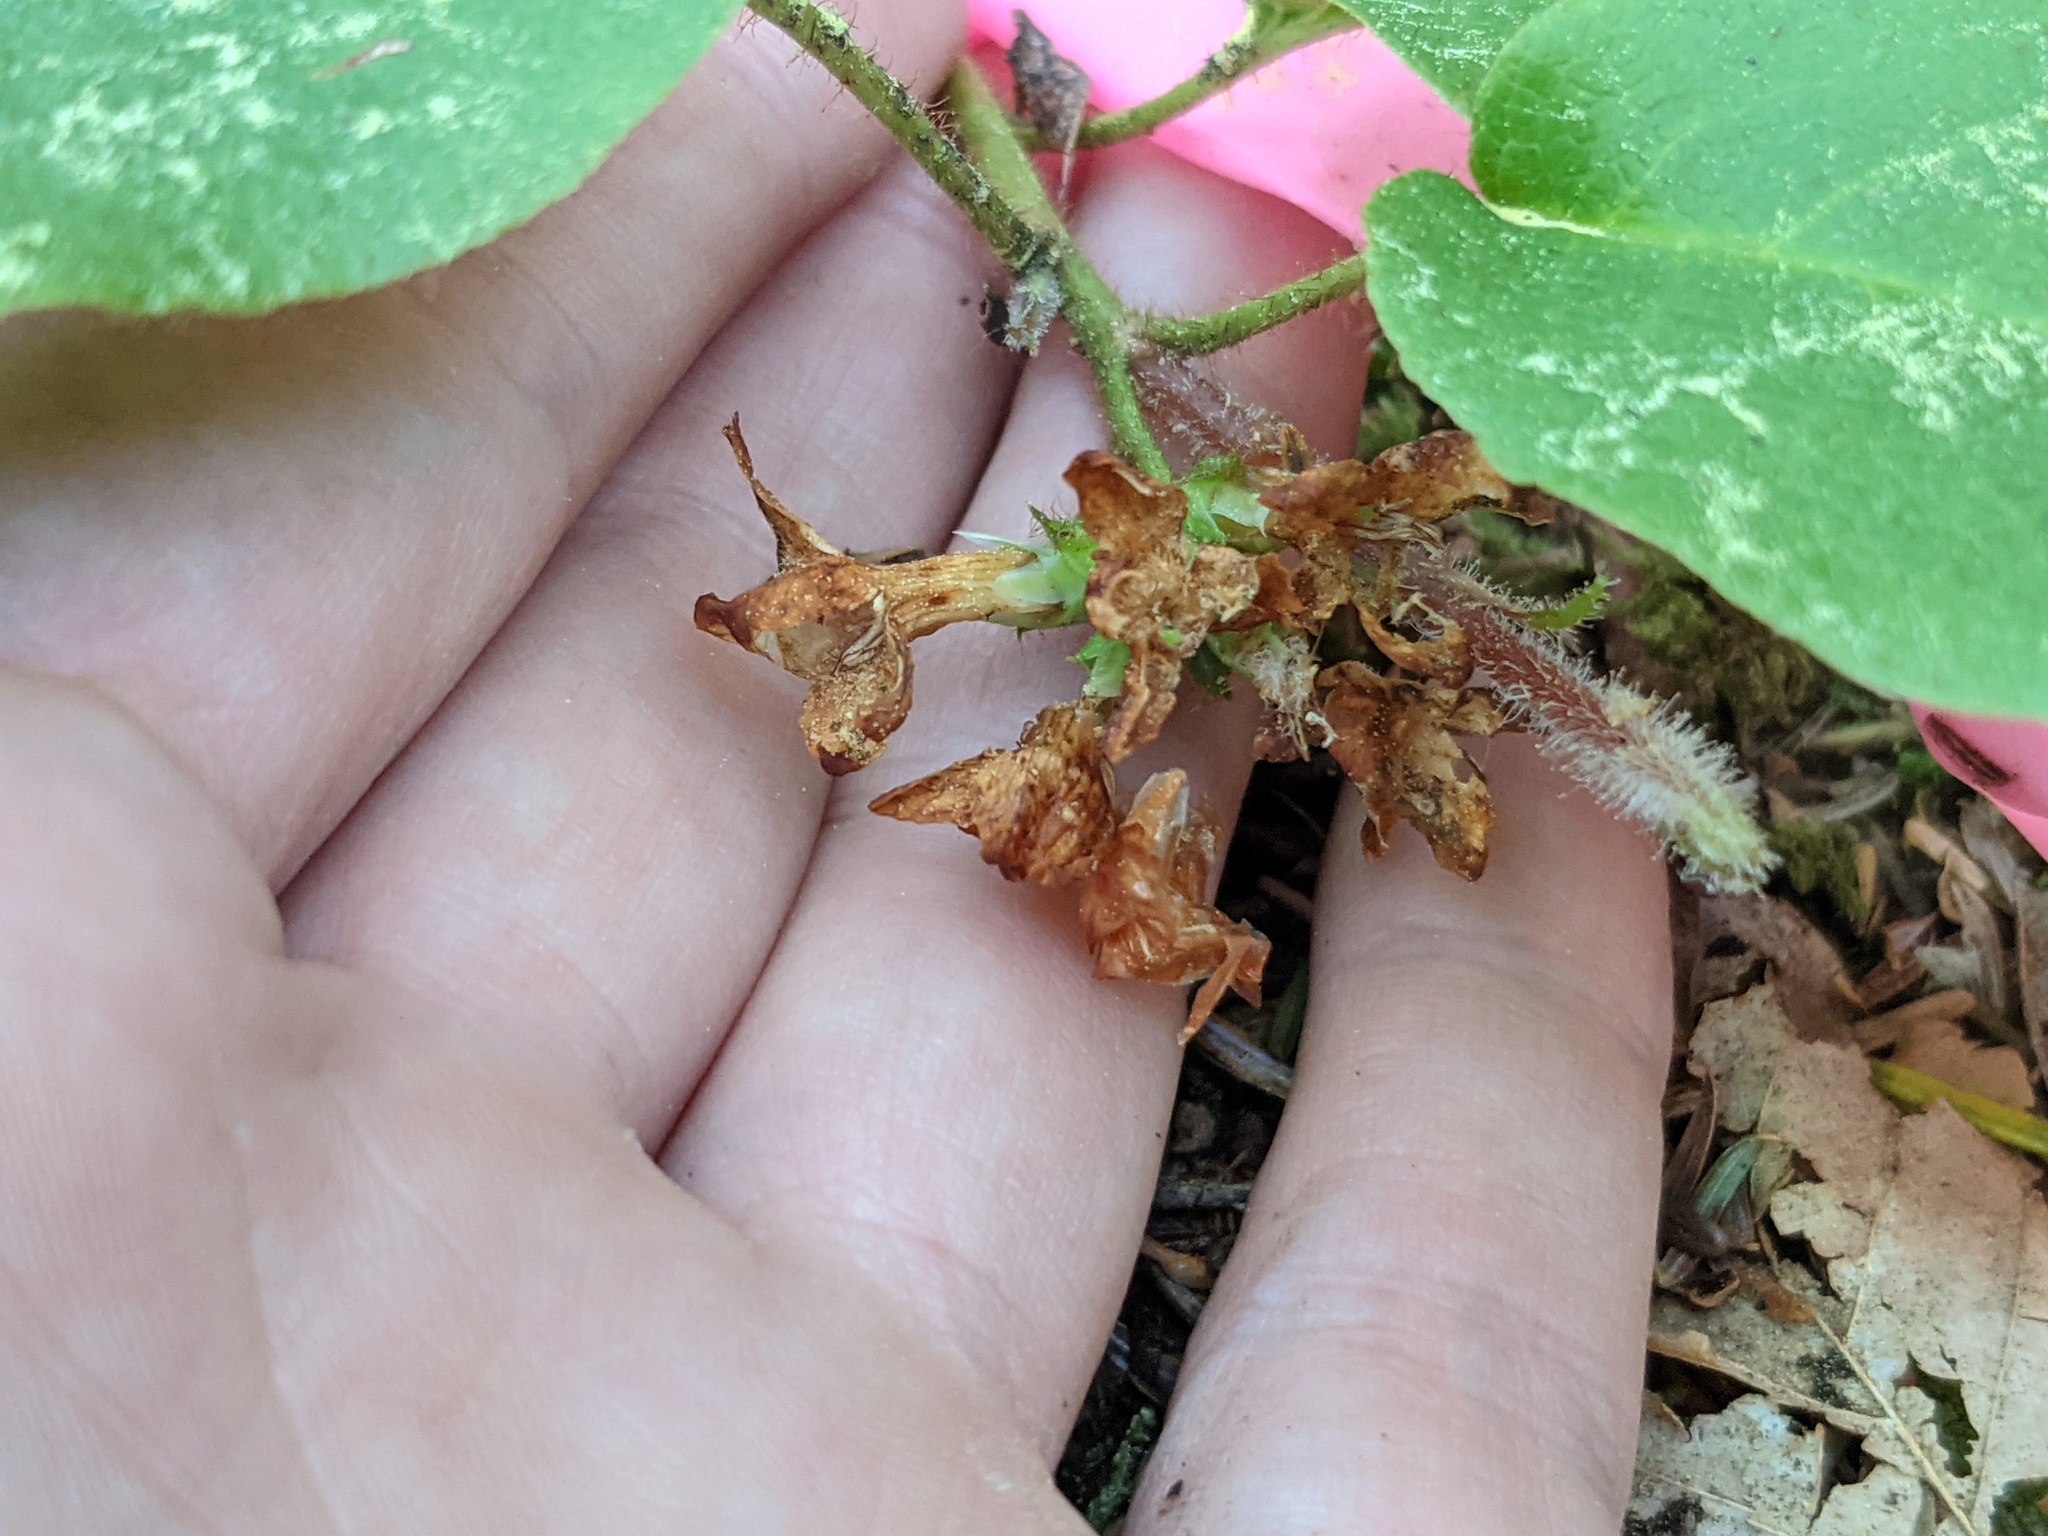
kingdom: Plantae
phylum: Tracheophyta
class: Magnoliopsida
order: Ericales
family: Ericaceae
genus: Epigaea
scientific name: Epigaea repens
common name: Gravelroot
